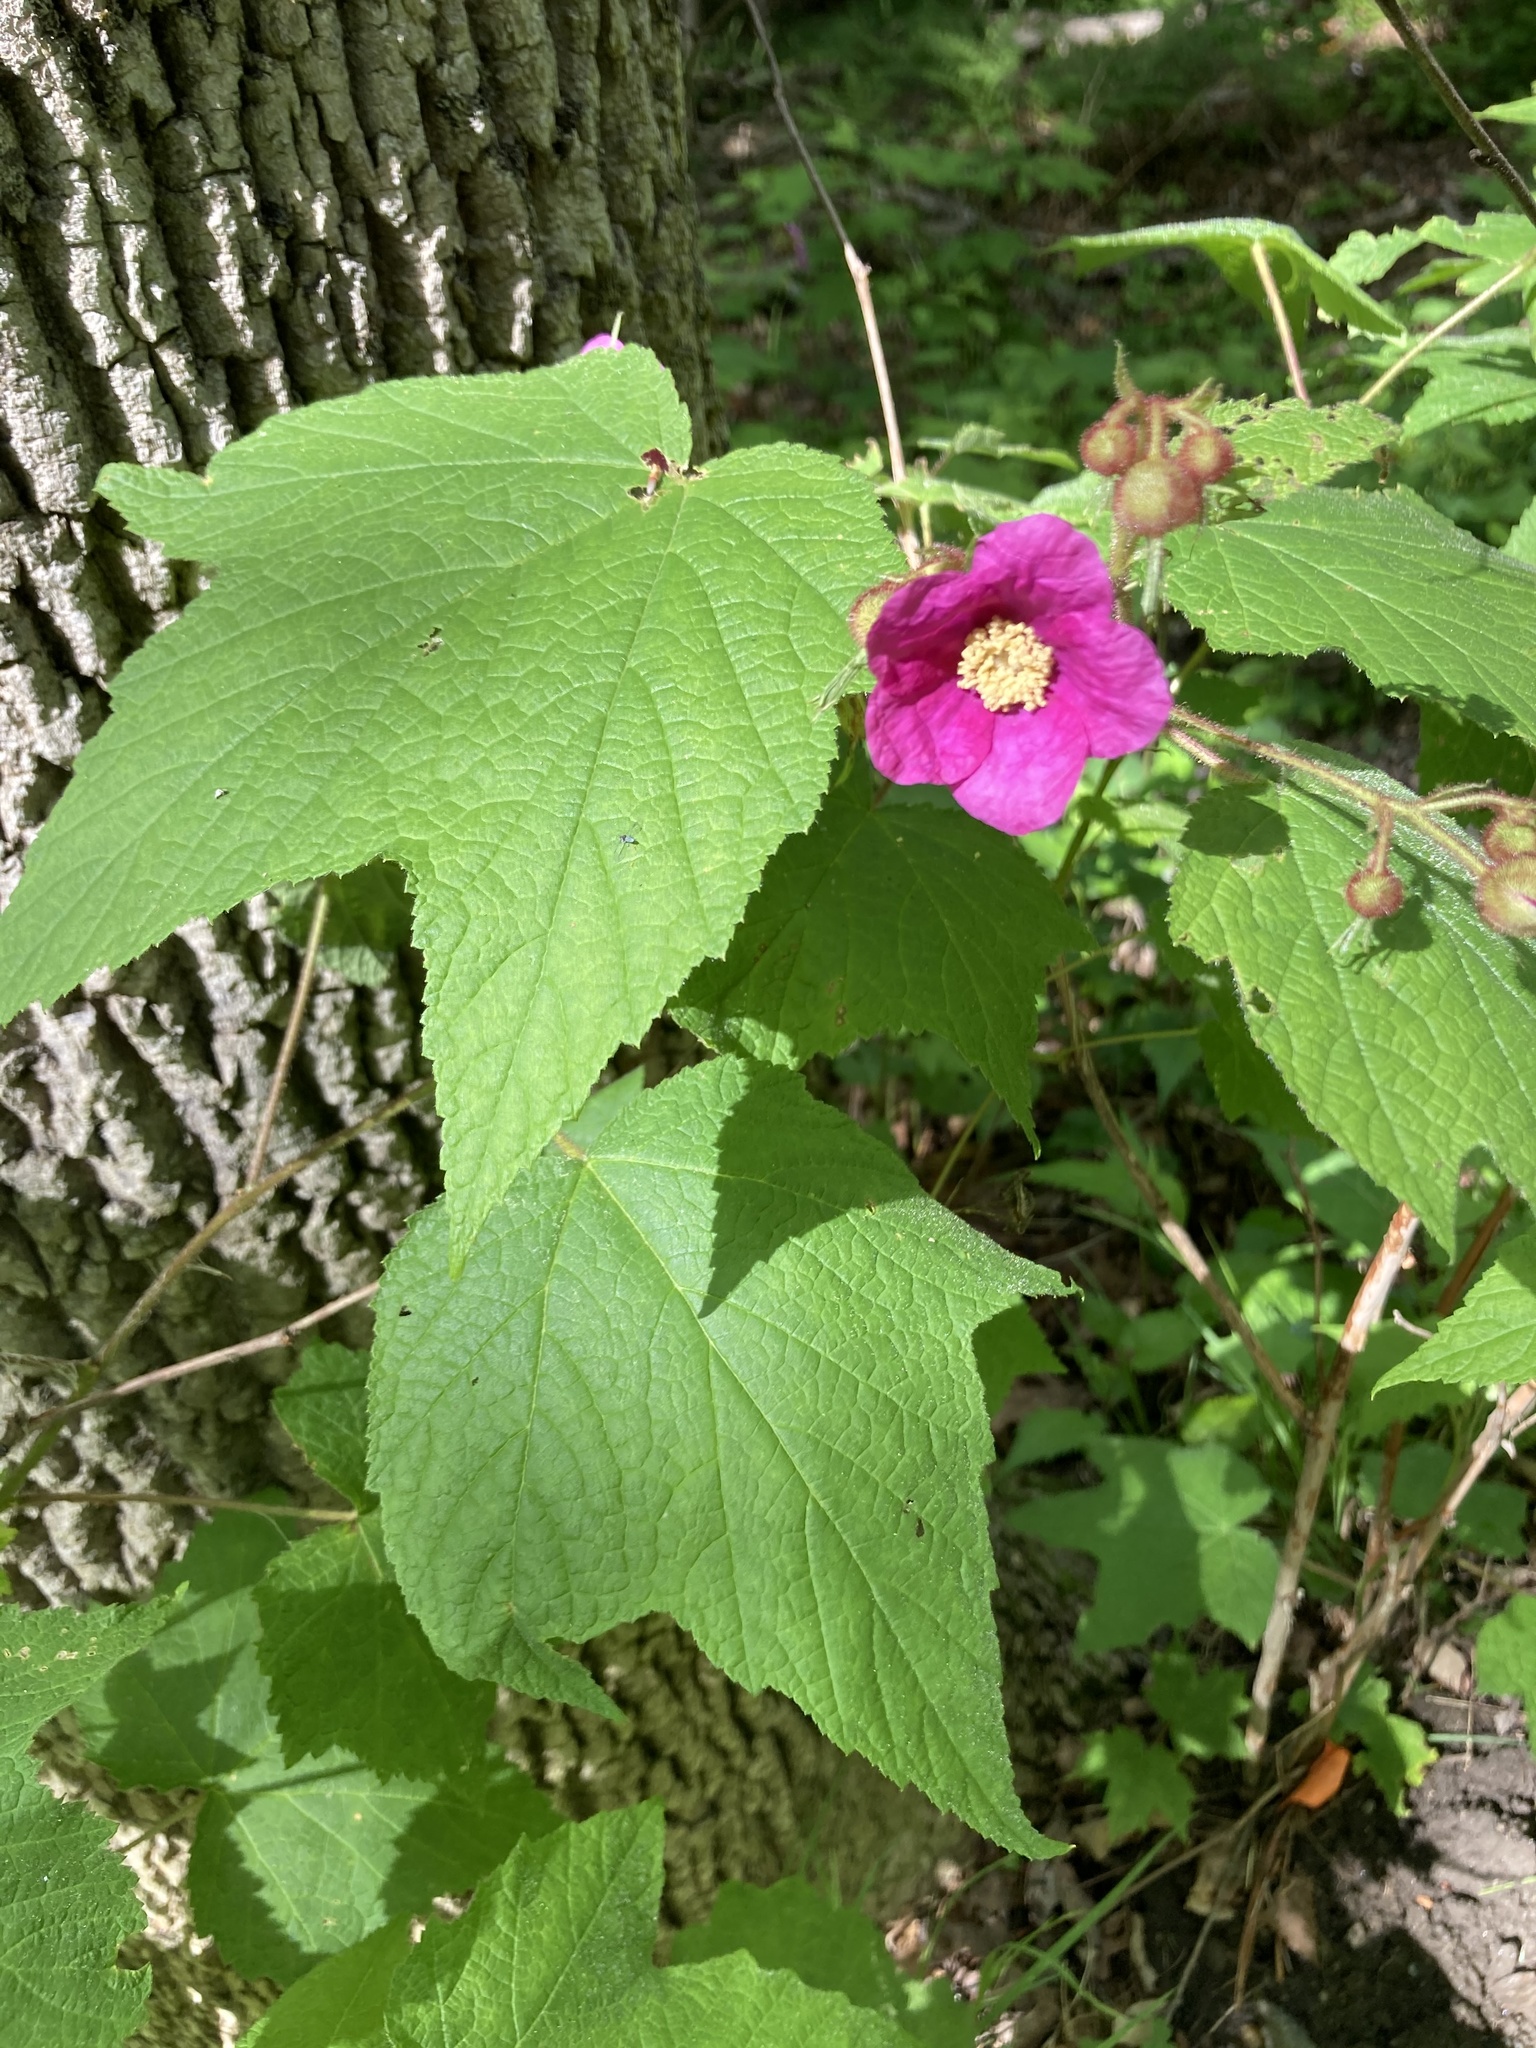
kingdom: Plantae
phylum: Tracheophyta
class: Magnoliopsida
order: Rosales
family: Rosaceae
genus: Rubus
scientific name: Rubus odoratus
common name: Purple-flowered raspberry
